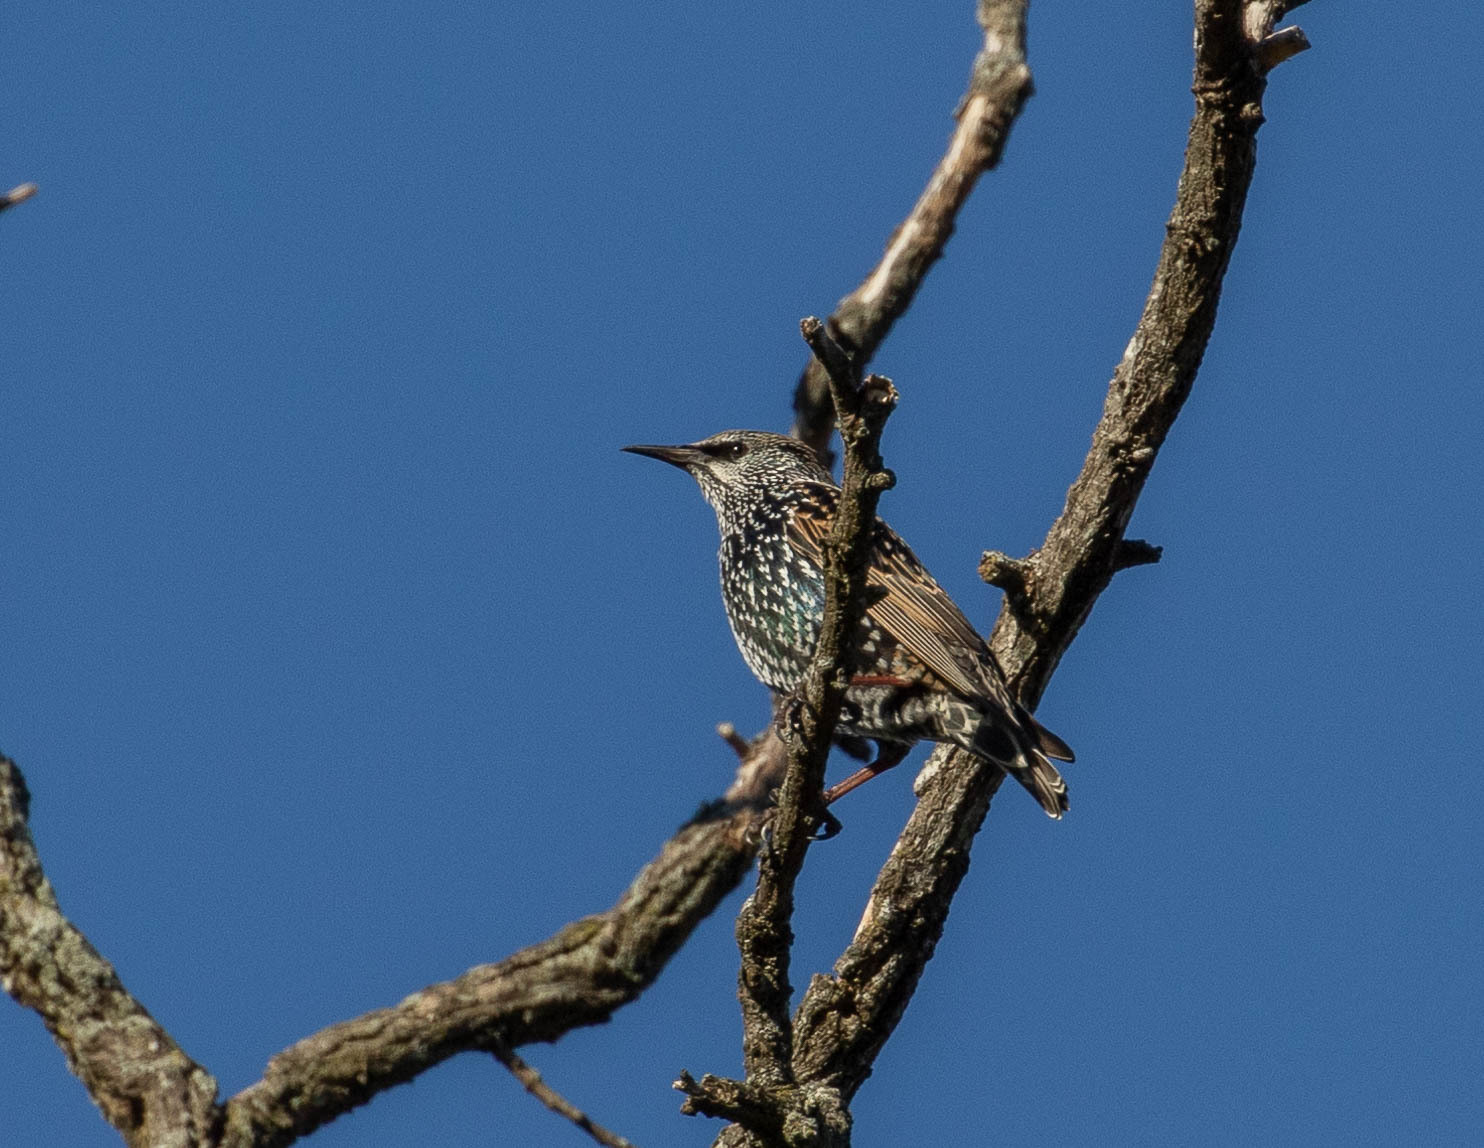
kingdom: Animalia
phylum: Chordata
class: Aves
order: Passeriformes
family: Sturnidae
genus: Sturnus
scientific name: Sturnus vulgaris
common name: Common starling
